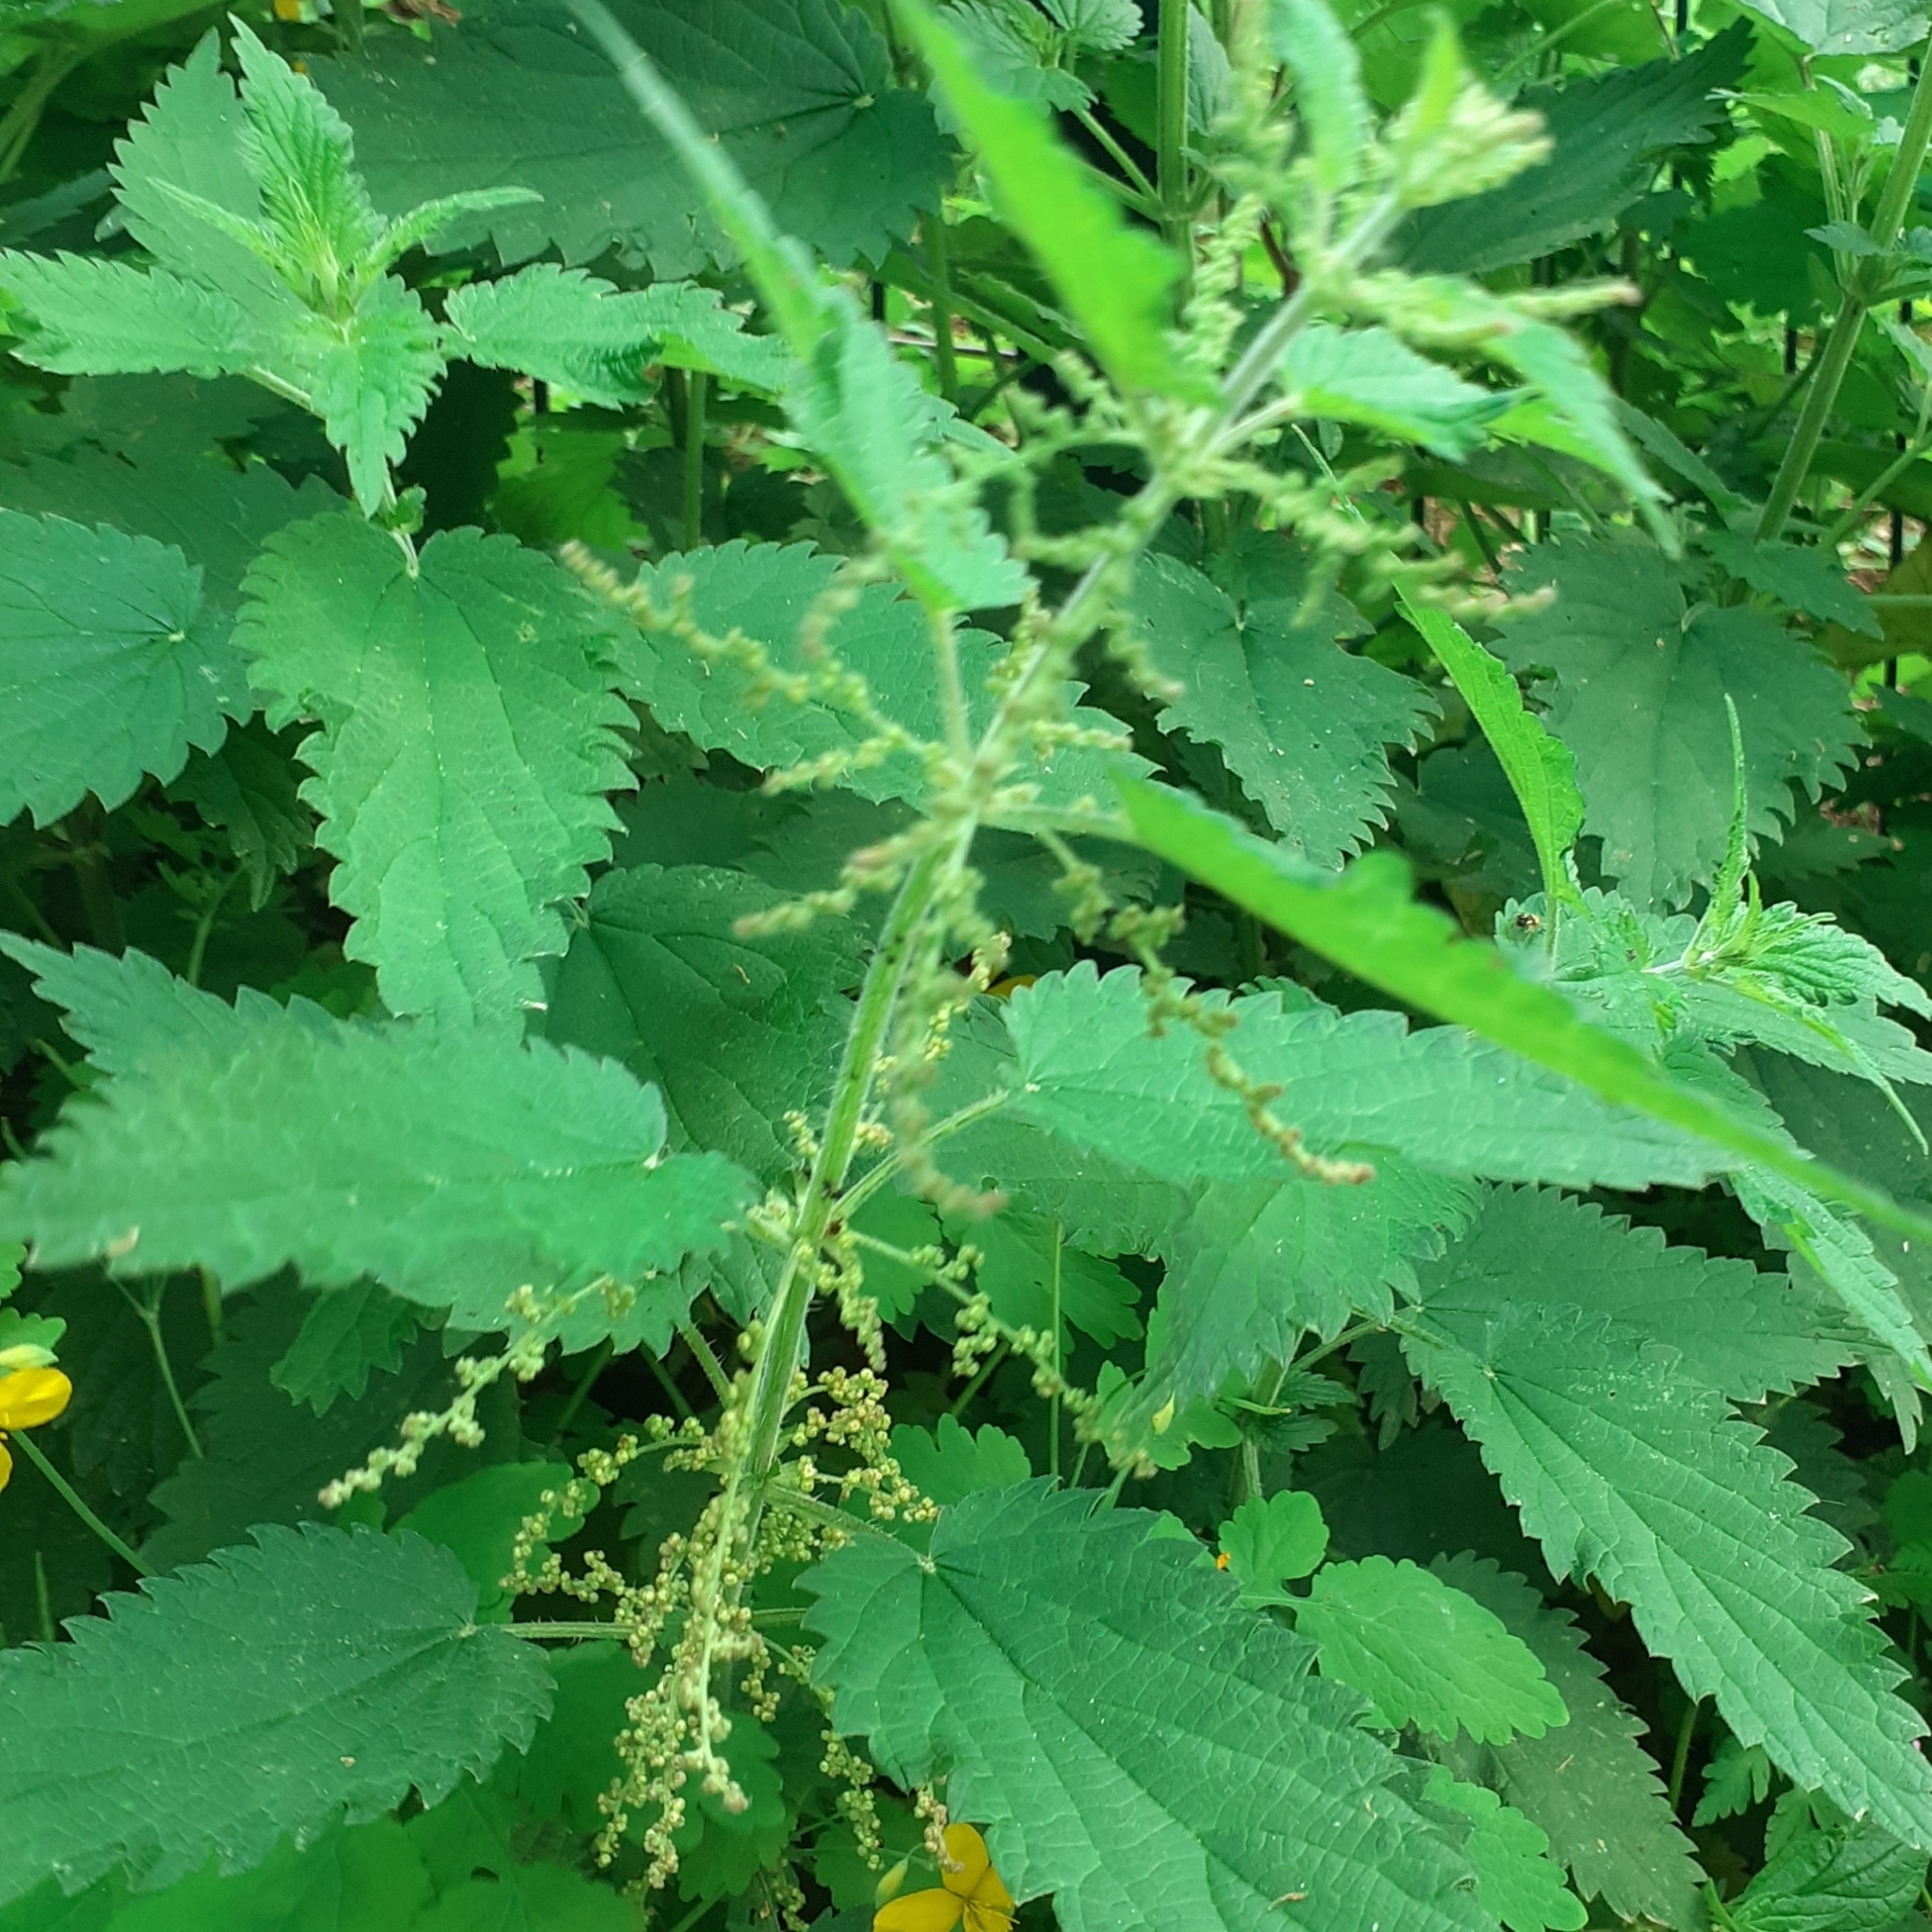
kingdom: Plantae
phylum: Tracheophyta
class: Magnoliopsida
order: Rosales
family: Urticaceae
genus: Urtica
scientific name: Urtica dioica
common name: Common nettle
